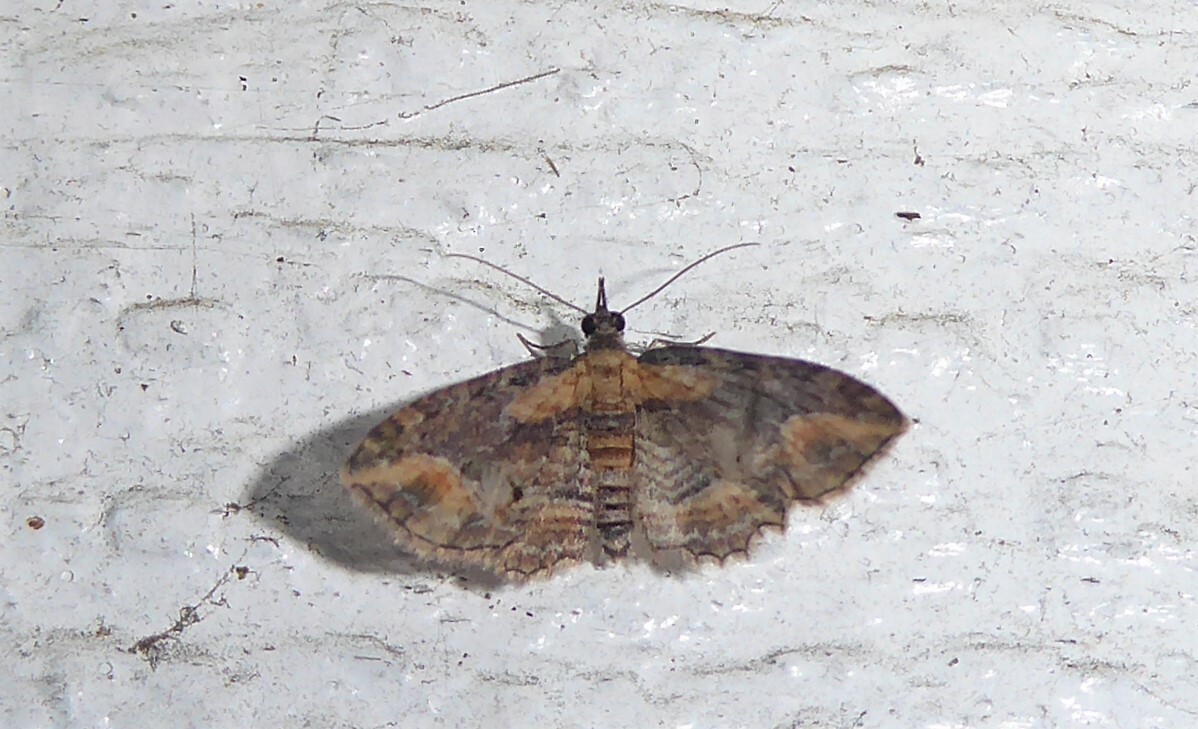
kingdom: Animalia
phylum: Arthropoda
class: Insecta
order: Lepidoptera
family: Geometridae
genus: Chloroclystis
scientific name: Chloroclystis filata
